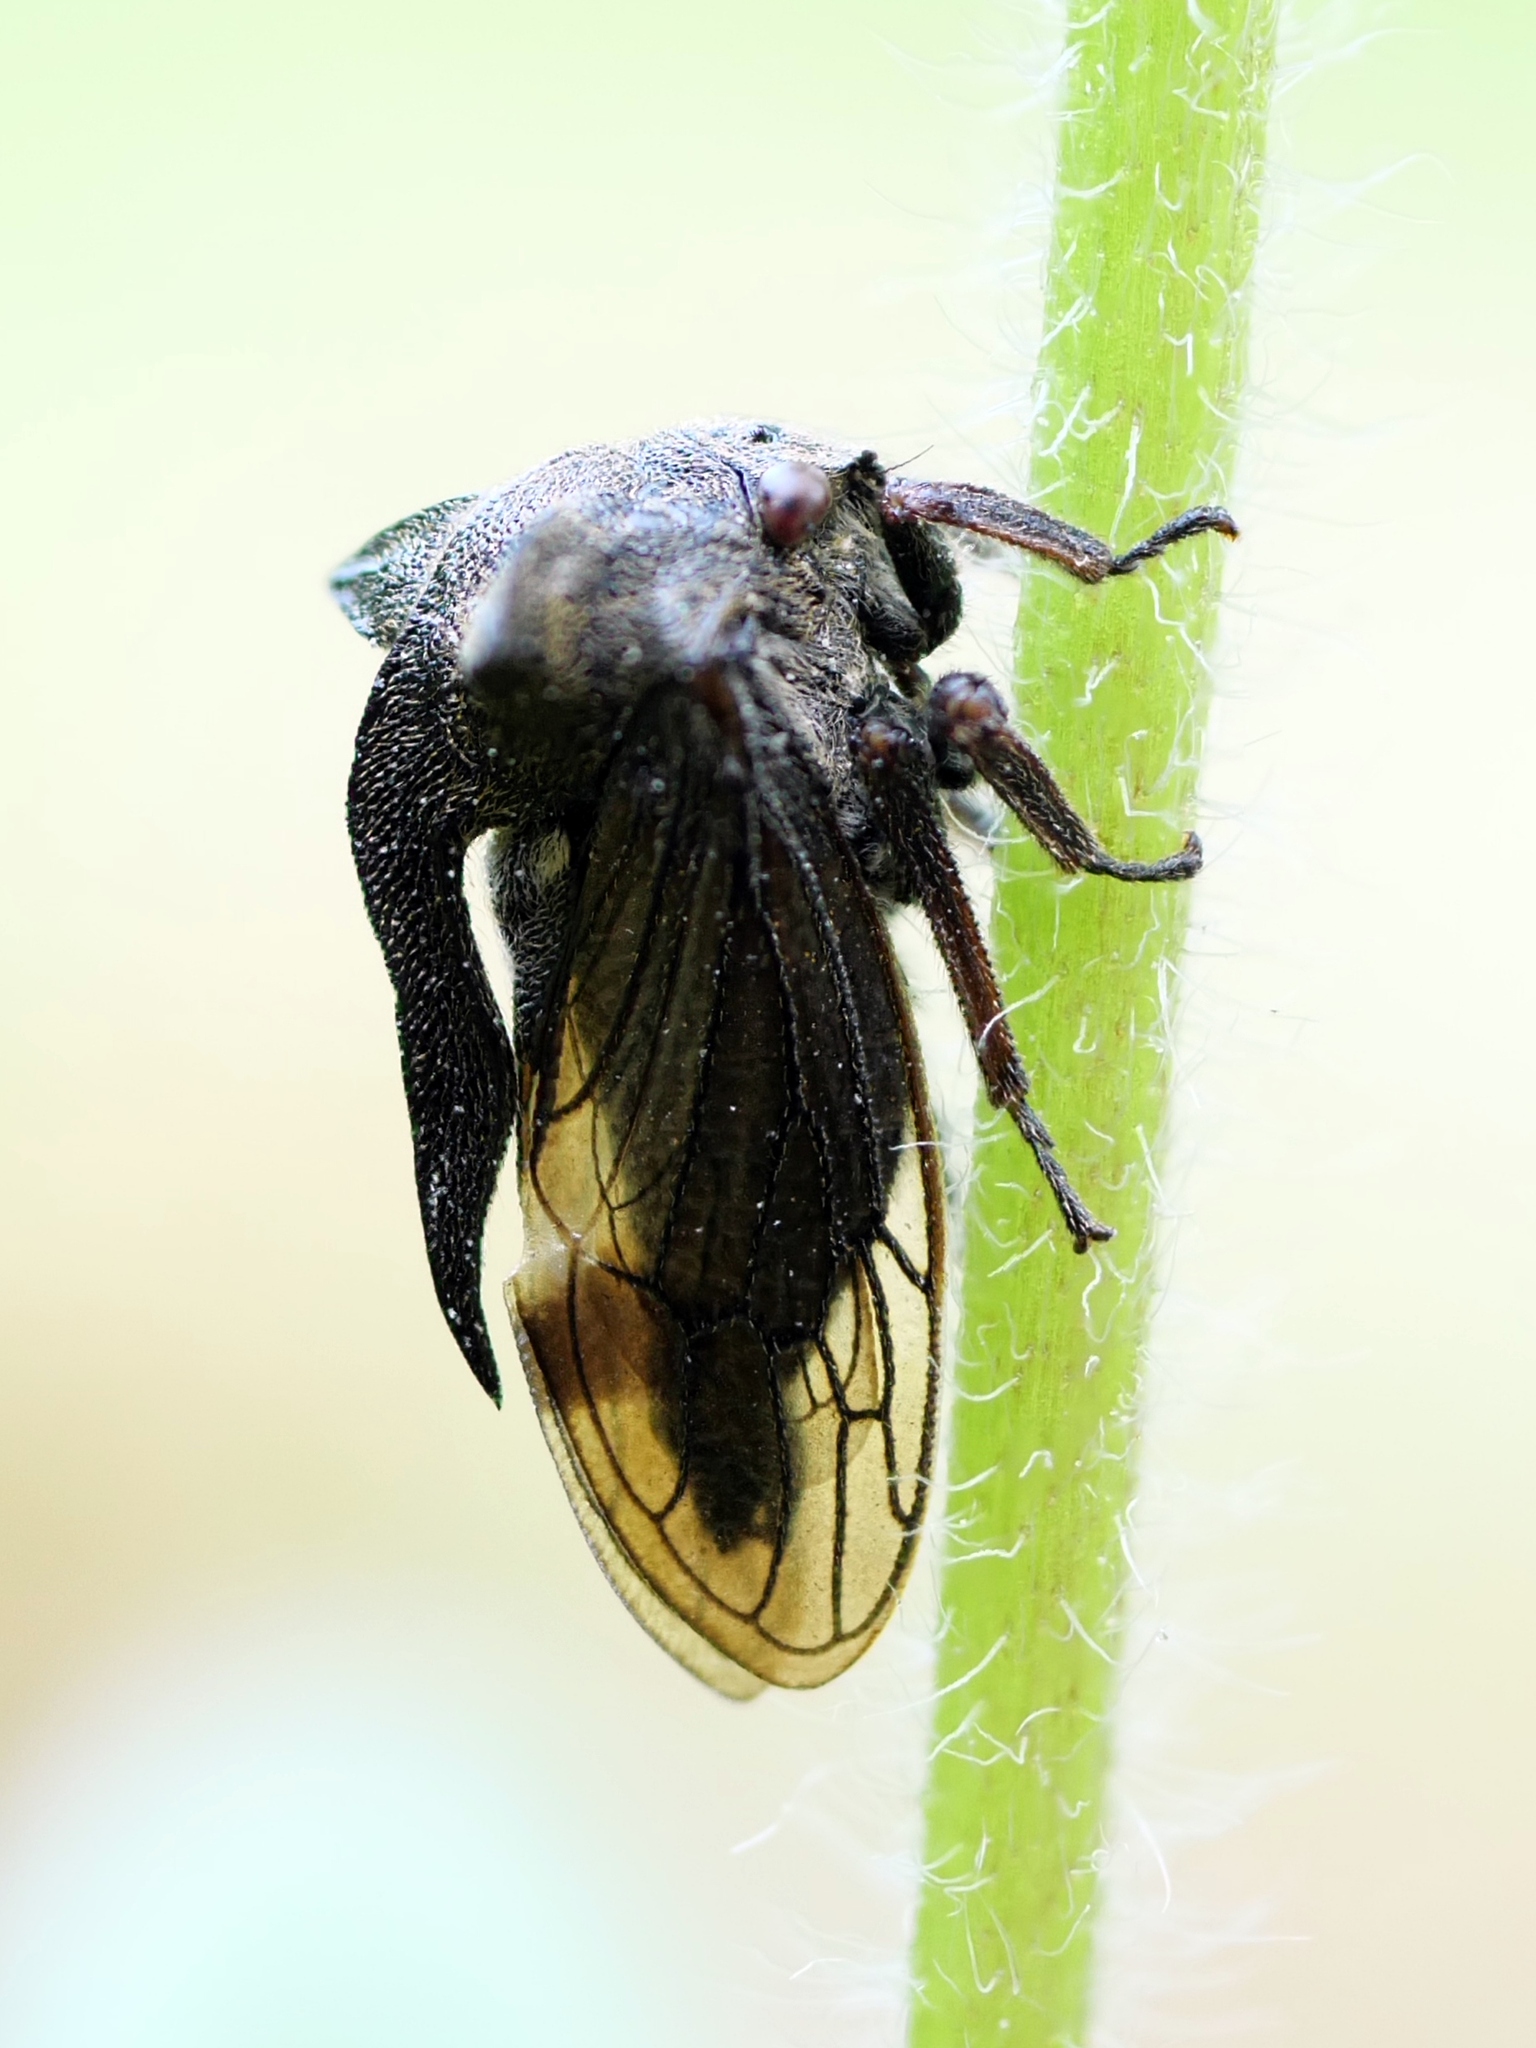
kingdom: Animalia
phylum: Arthropoda
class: Insecta
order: Hemiptera
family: Membracidae
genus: Centrotus
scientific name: Centrotus cornuta
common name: Treehopper
